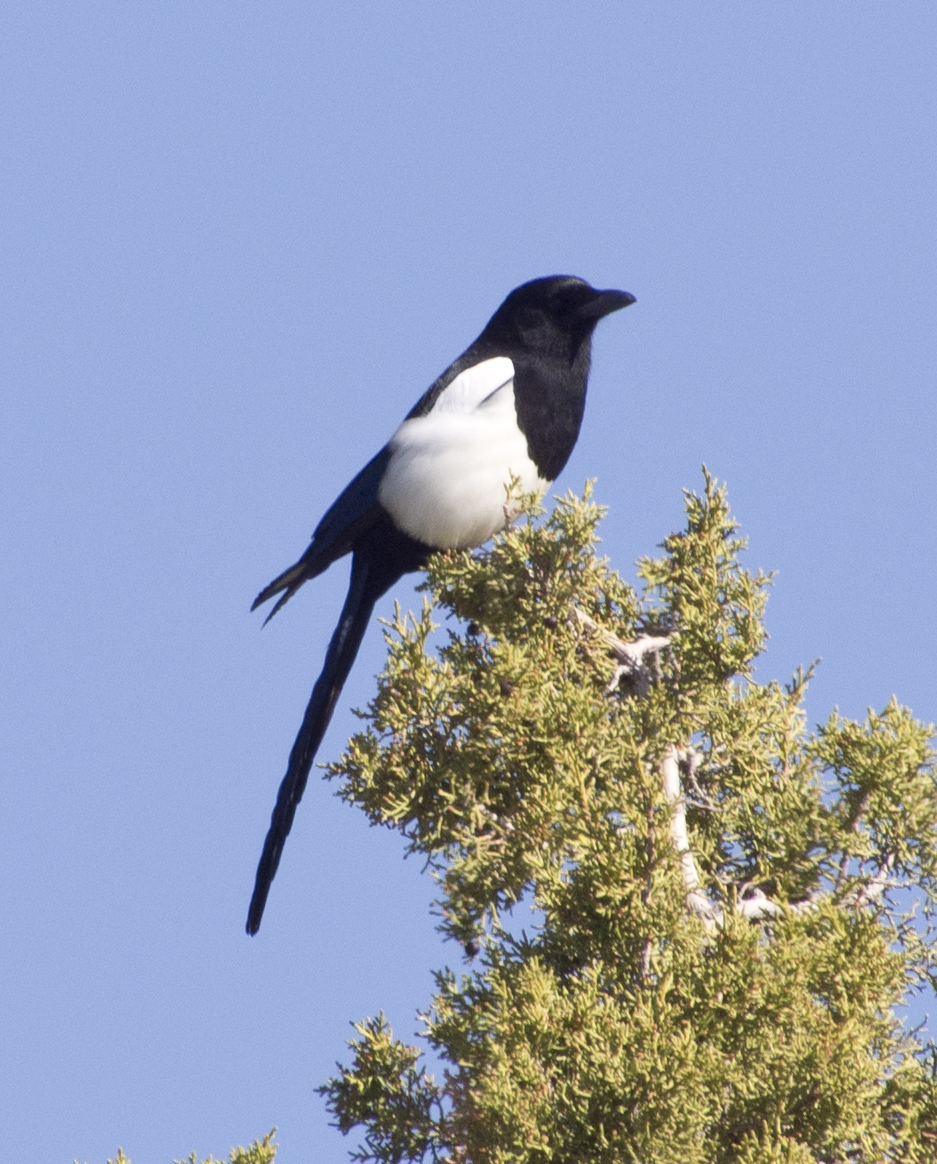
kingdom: Animalia
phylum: Chordata
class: Aves
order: Passeriformes
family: Corvidae
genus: Pica
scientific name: Pica hudsonia
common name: Black-billed magpie
